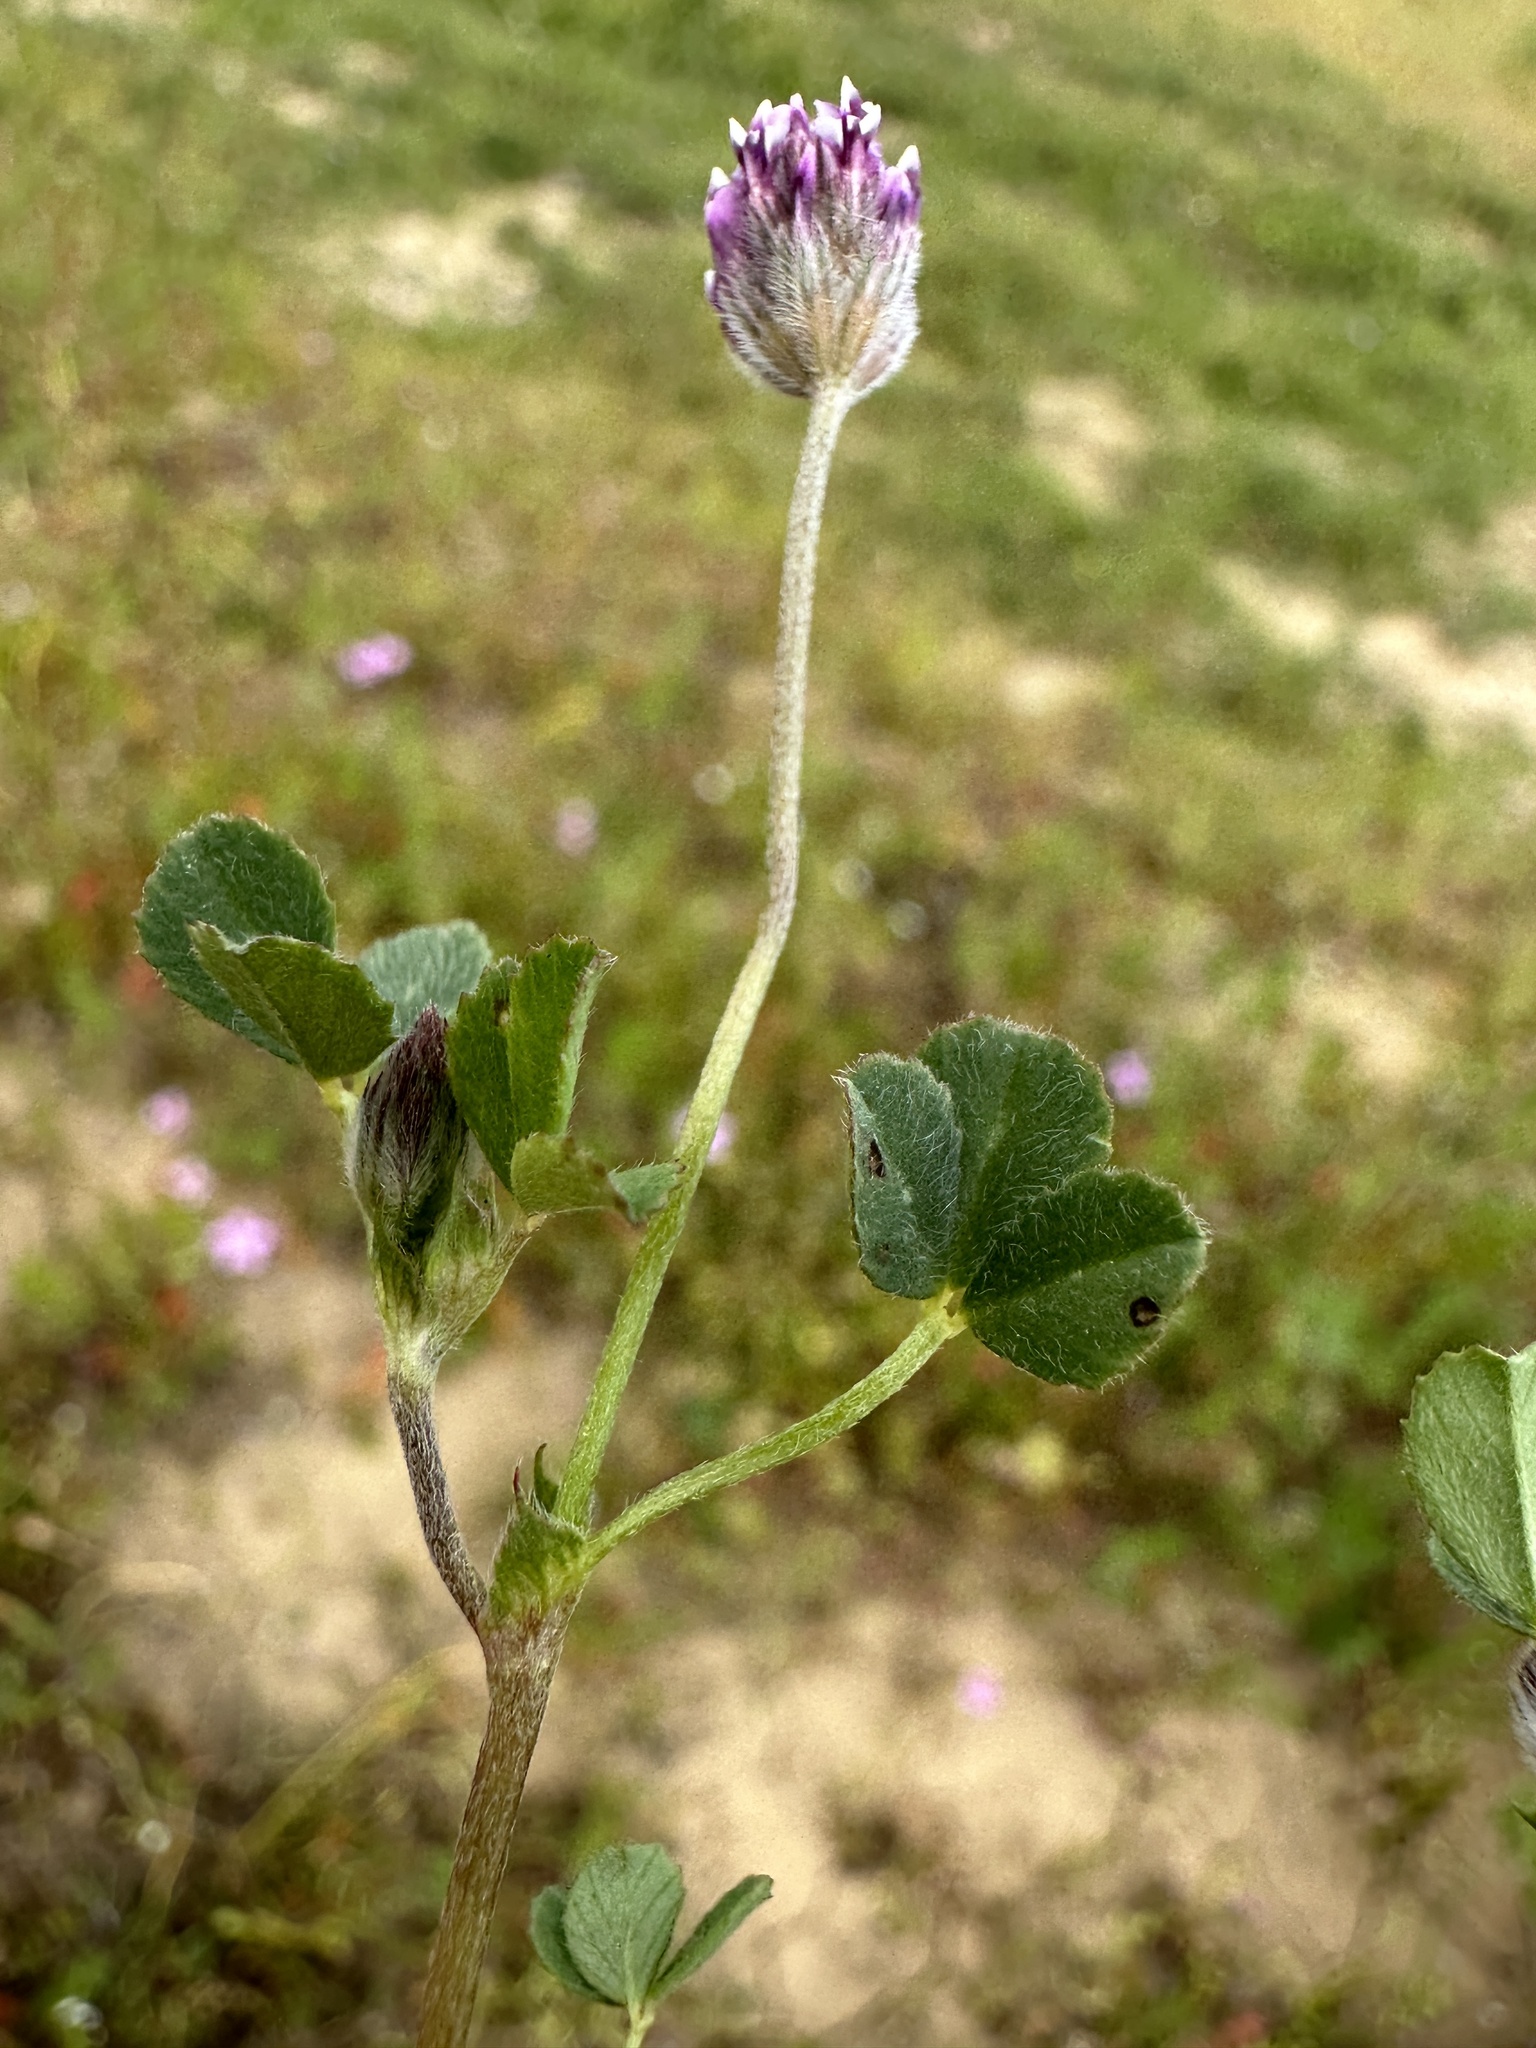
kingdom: Plantae
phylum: Tracheophyta
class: Magnoliopsida
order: Fabales
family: Fabaceae
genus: Trifolium
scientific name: Trifolium dichotomum
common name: Branched indian clover
